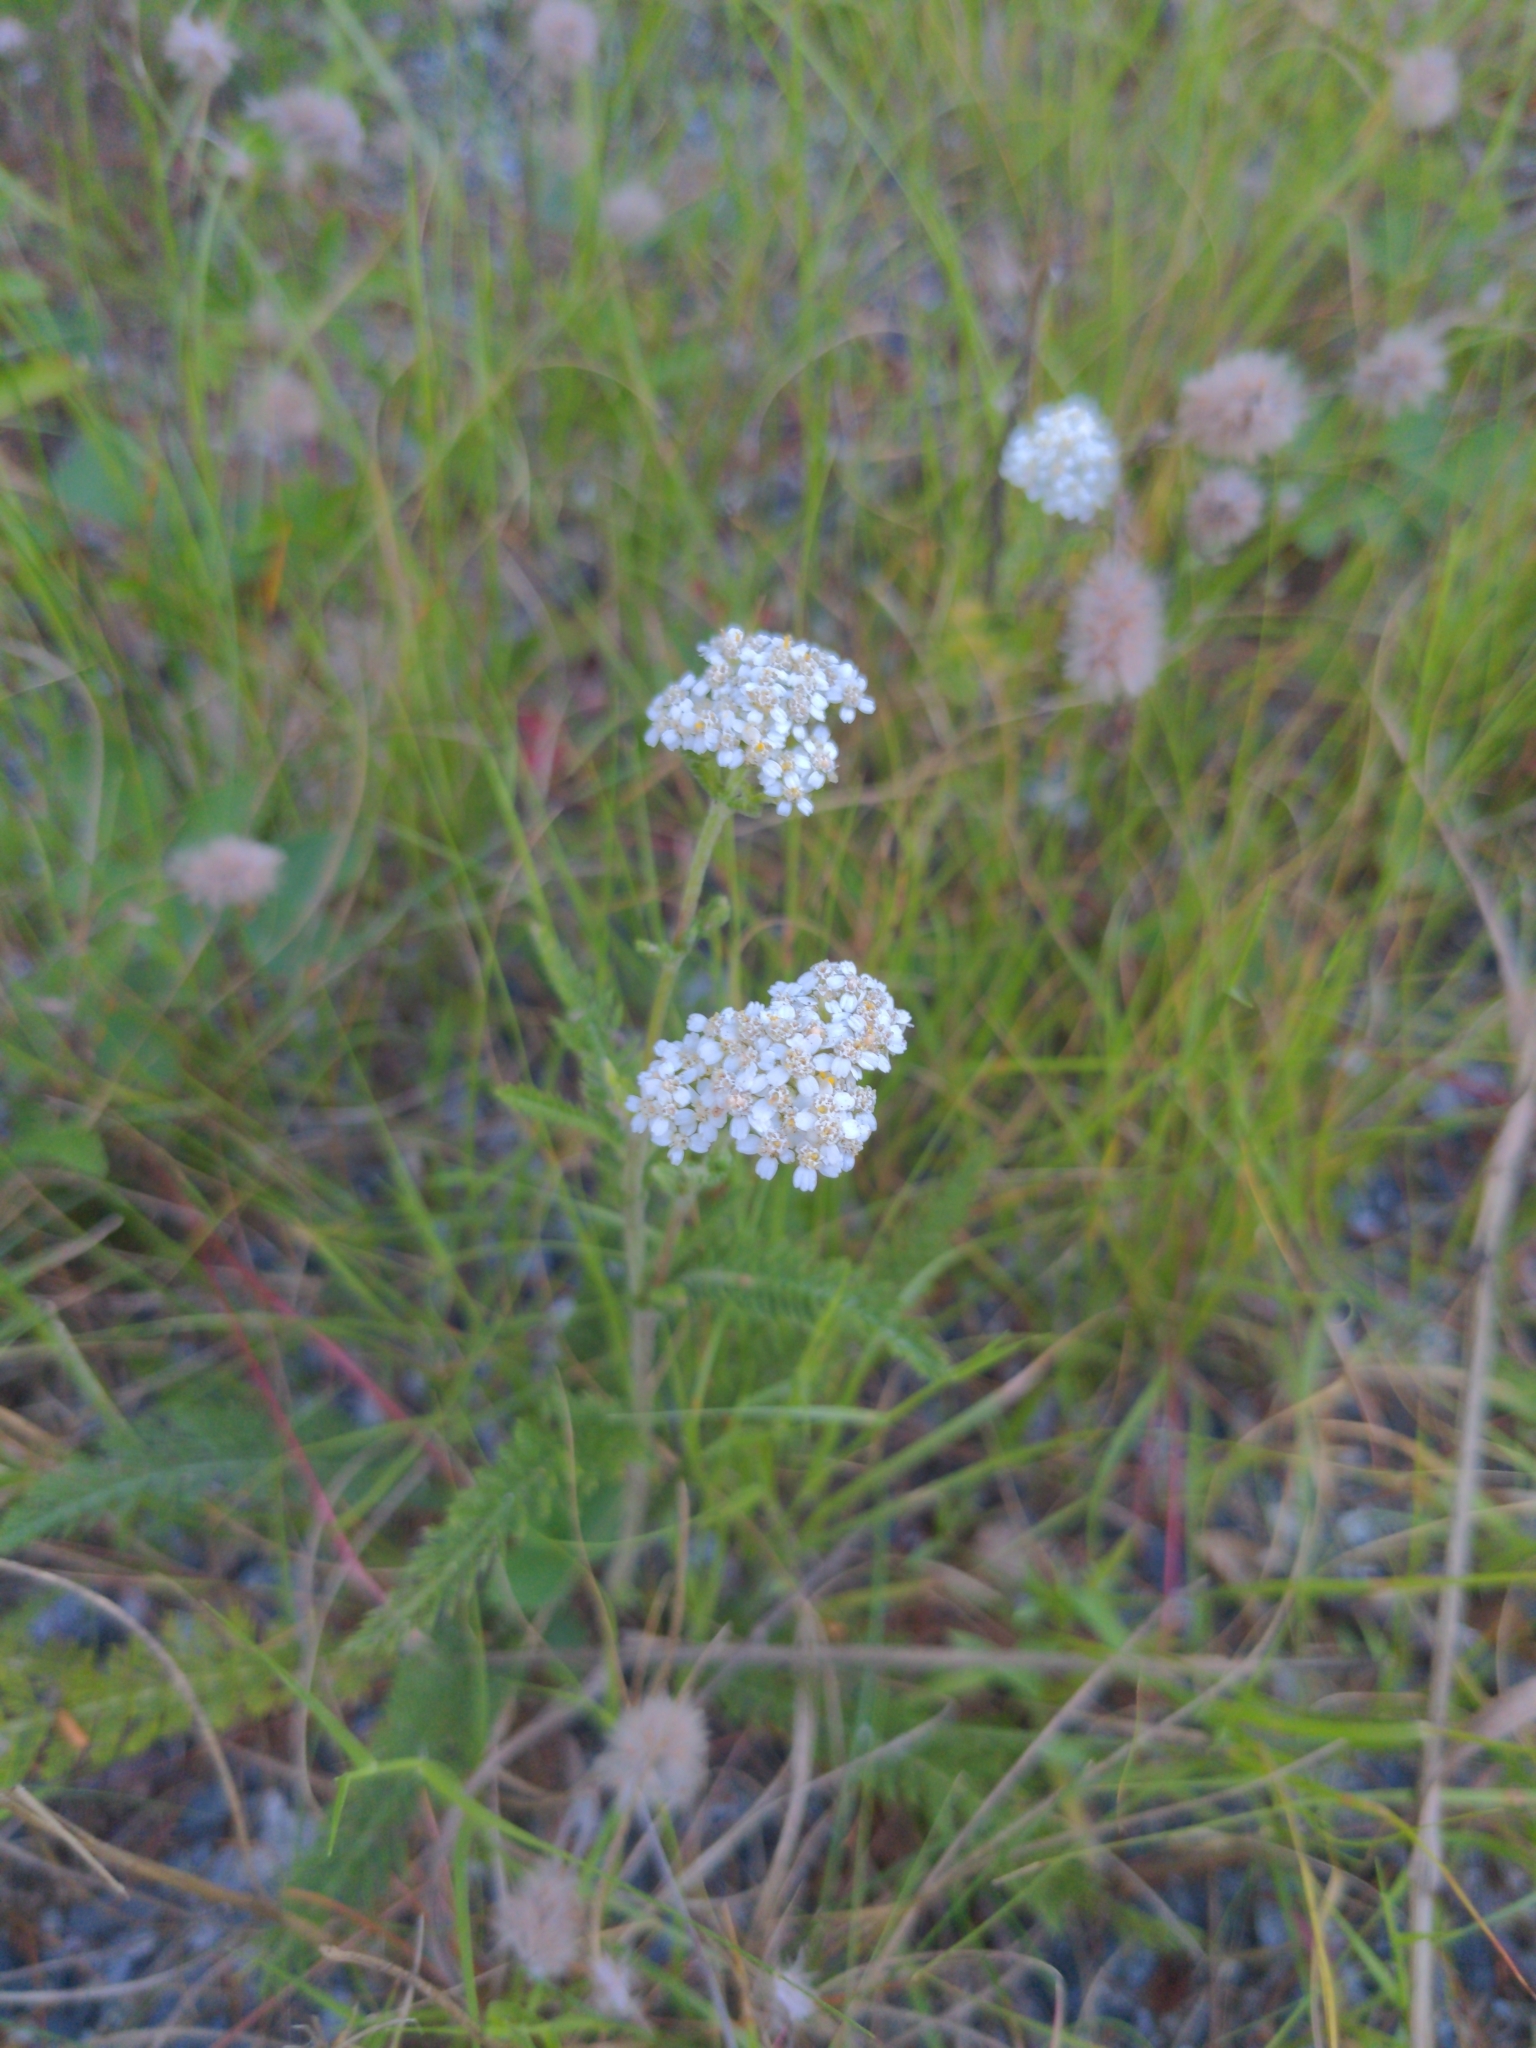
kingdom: Plantae
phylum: Tracheophyta
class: Magnoliopsida
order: Asterales
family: Asteraceae
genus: Achillea
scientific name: Achillea millefolium
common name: Yarrow
